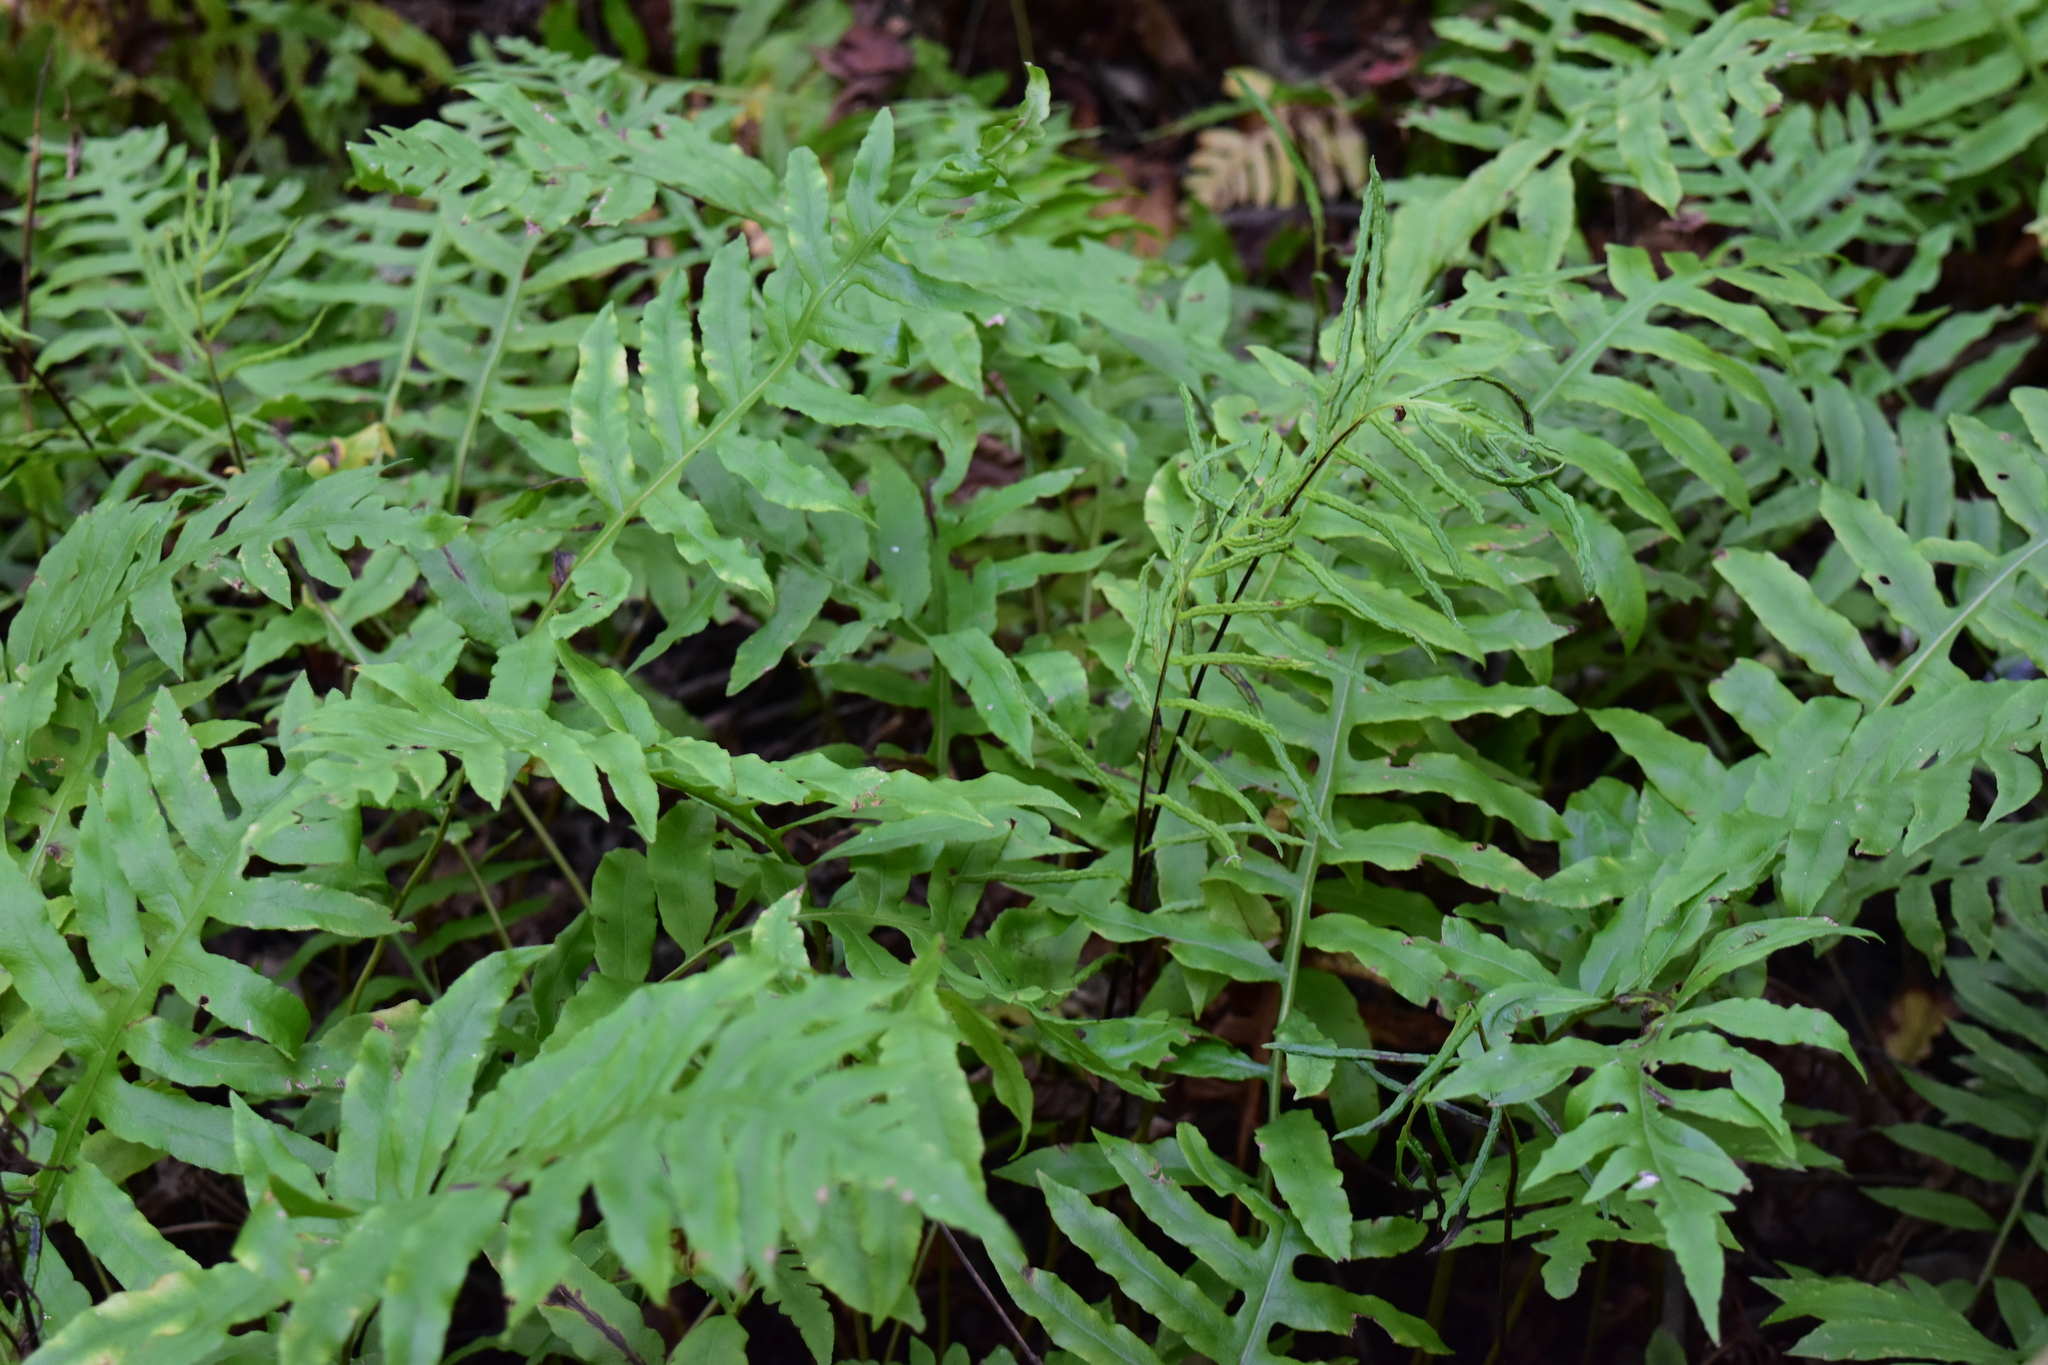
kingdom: Plantae
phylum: Tracheophyta
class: Polypodiopsida
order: Polypodiales
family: Blechnaceae
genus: Lorinseria
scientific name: Lorinseria areolata
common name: Dwarf chain fern
